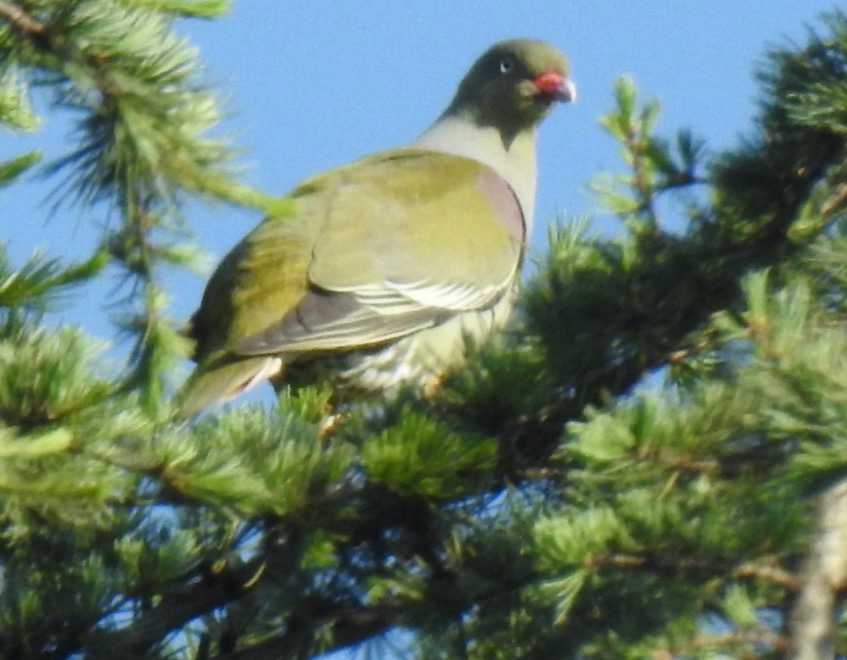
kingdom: Animalia
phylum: Chordata
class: Aves
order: Columbiformes
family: Columbidae
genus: Treron
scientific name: Treron calvus
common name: African green pigeon
